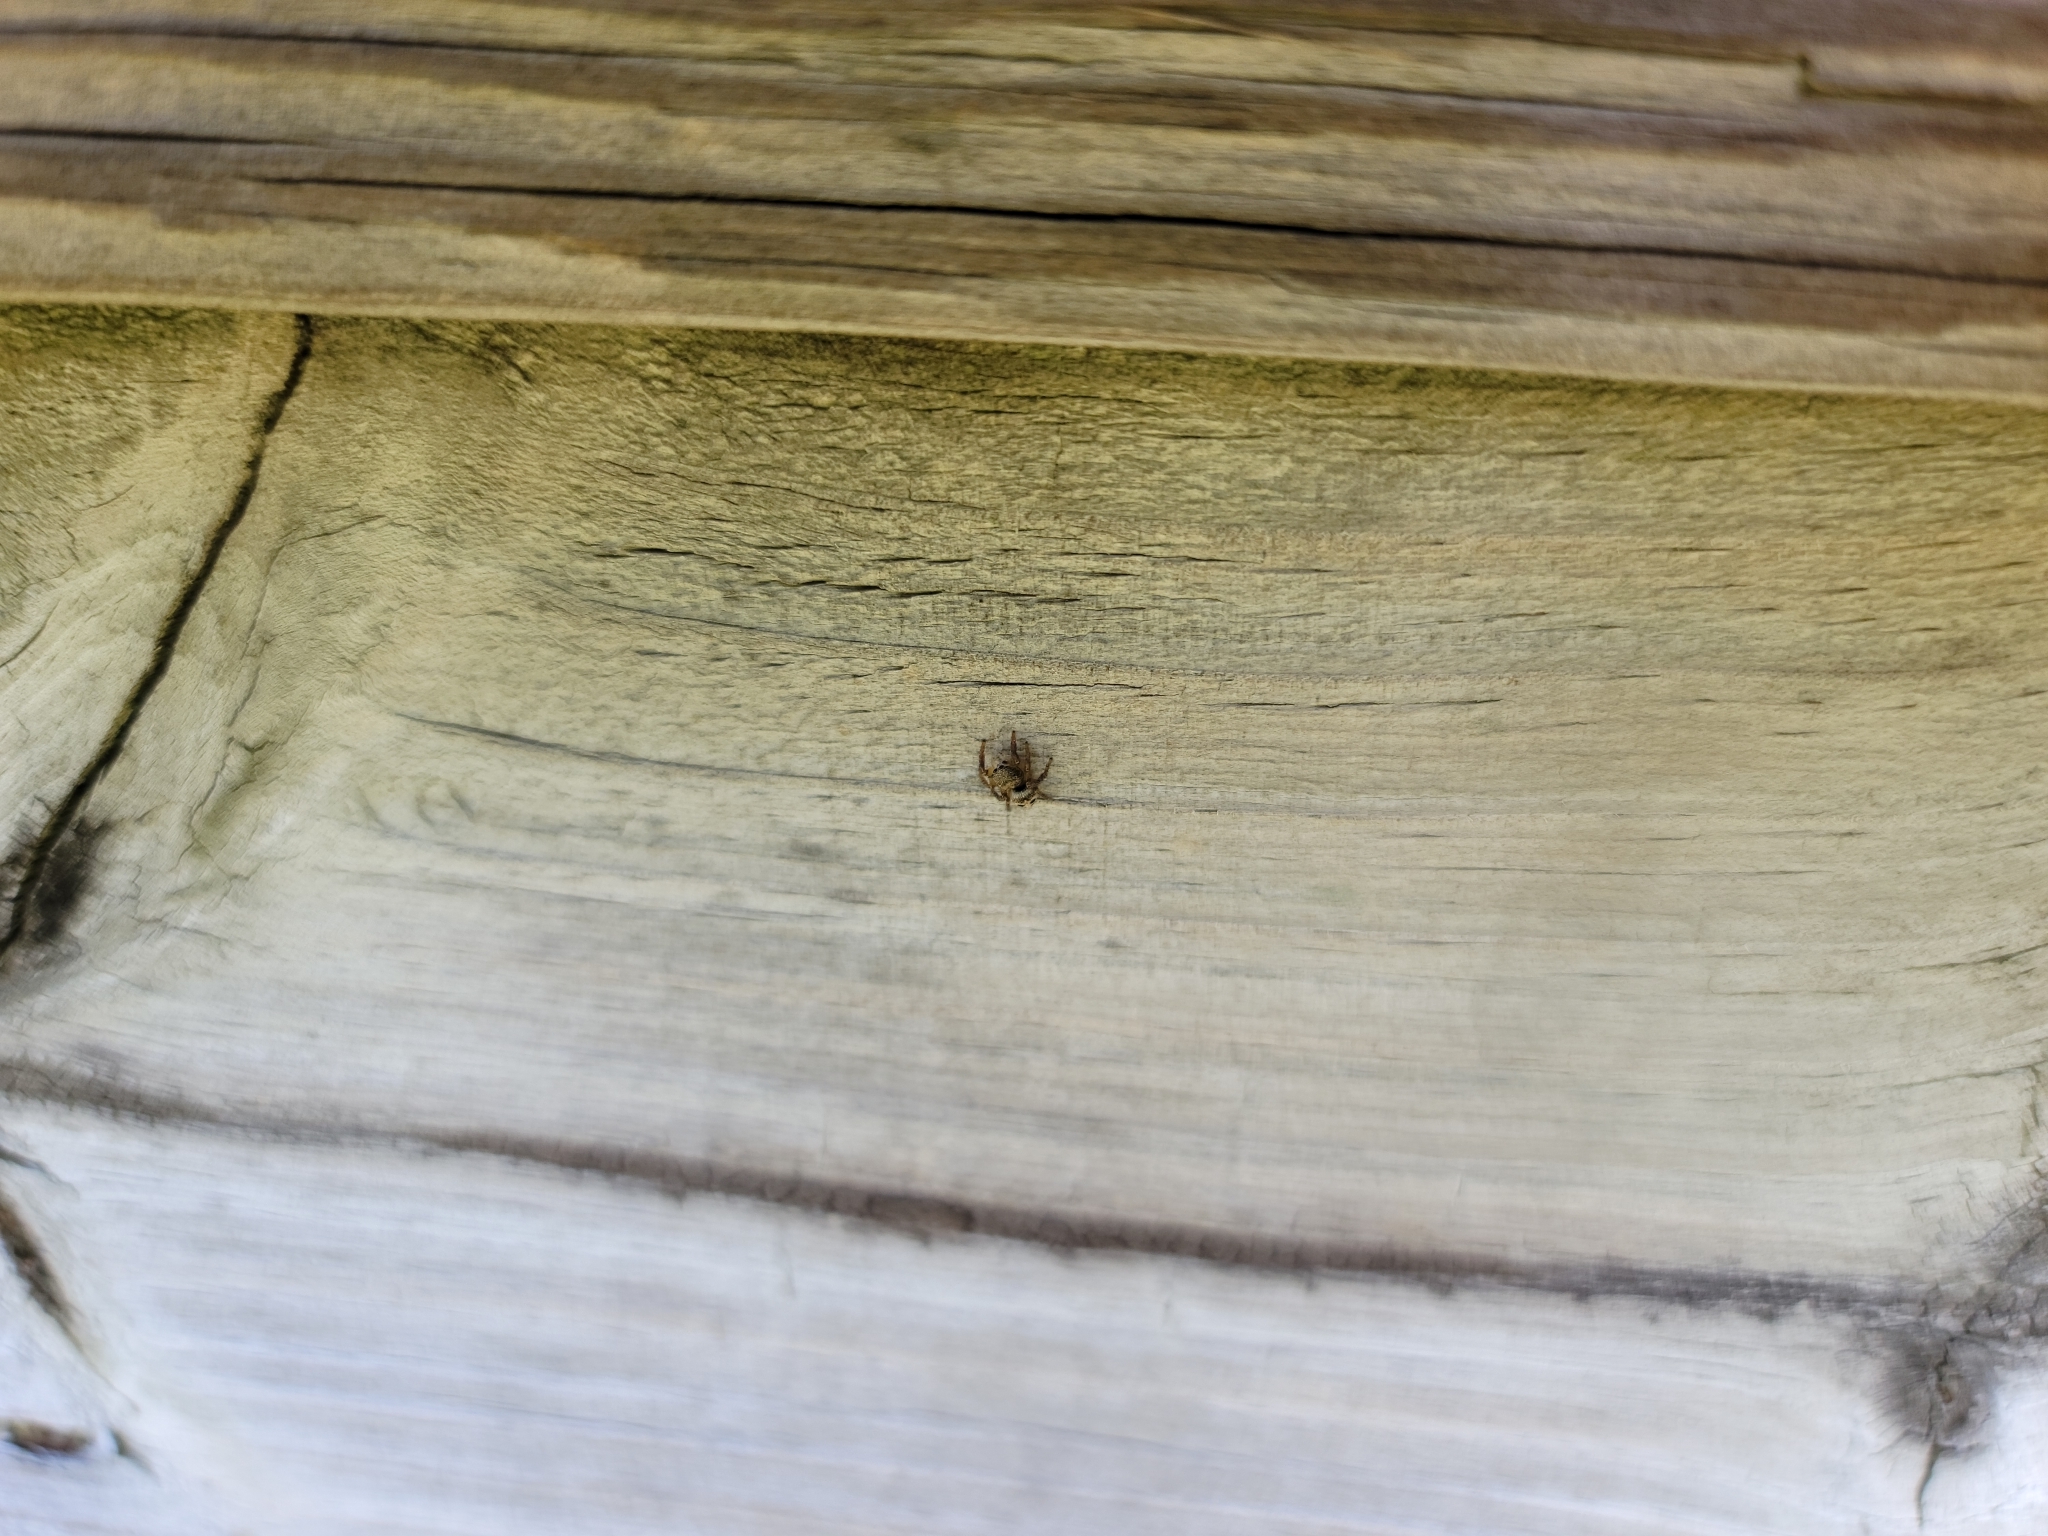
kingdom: Animalia
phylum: Arthropoda
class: Arachnida
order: Araneae
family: Salticidae
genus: Habronattus
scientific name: Habronattus decorus
